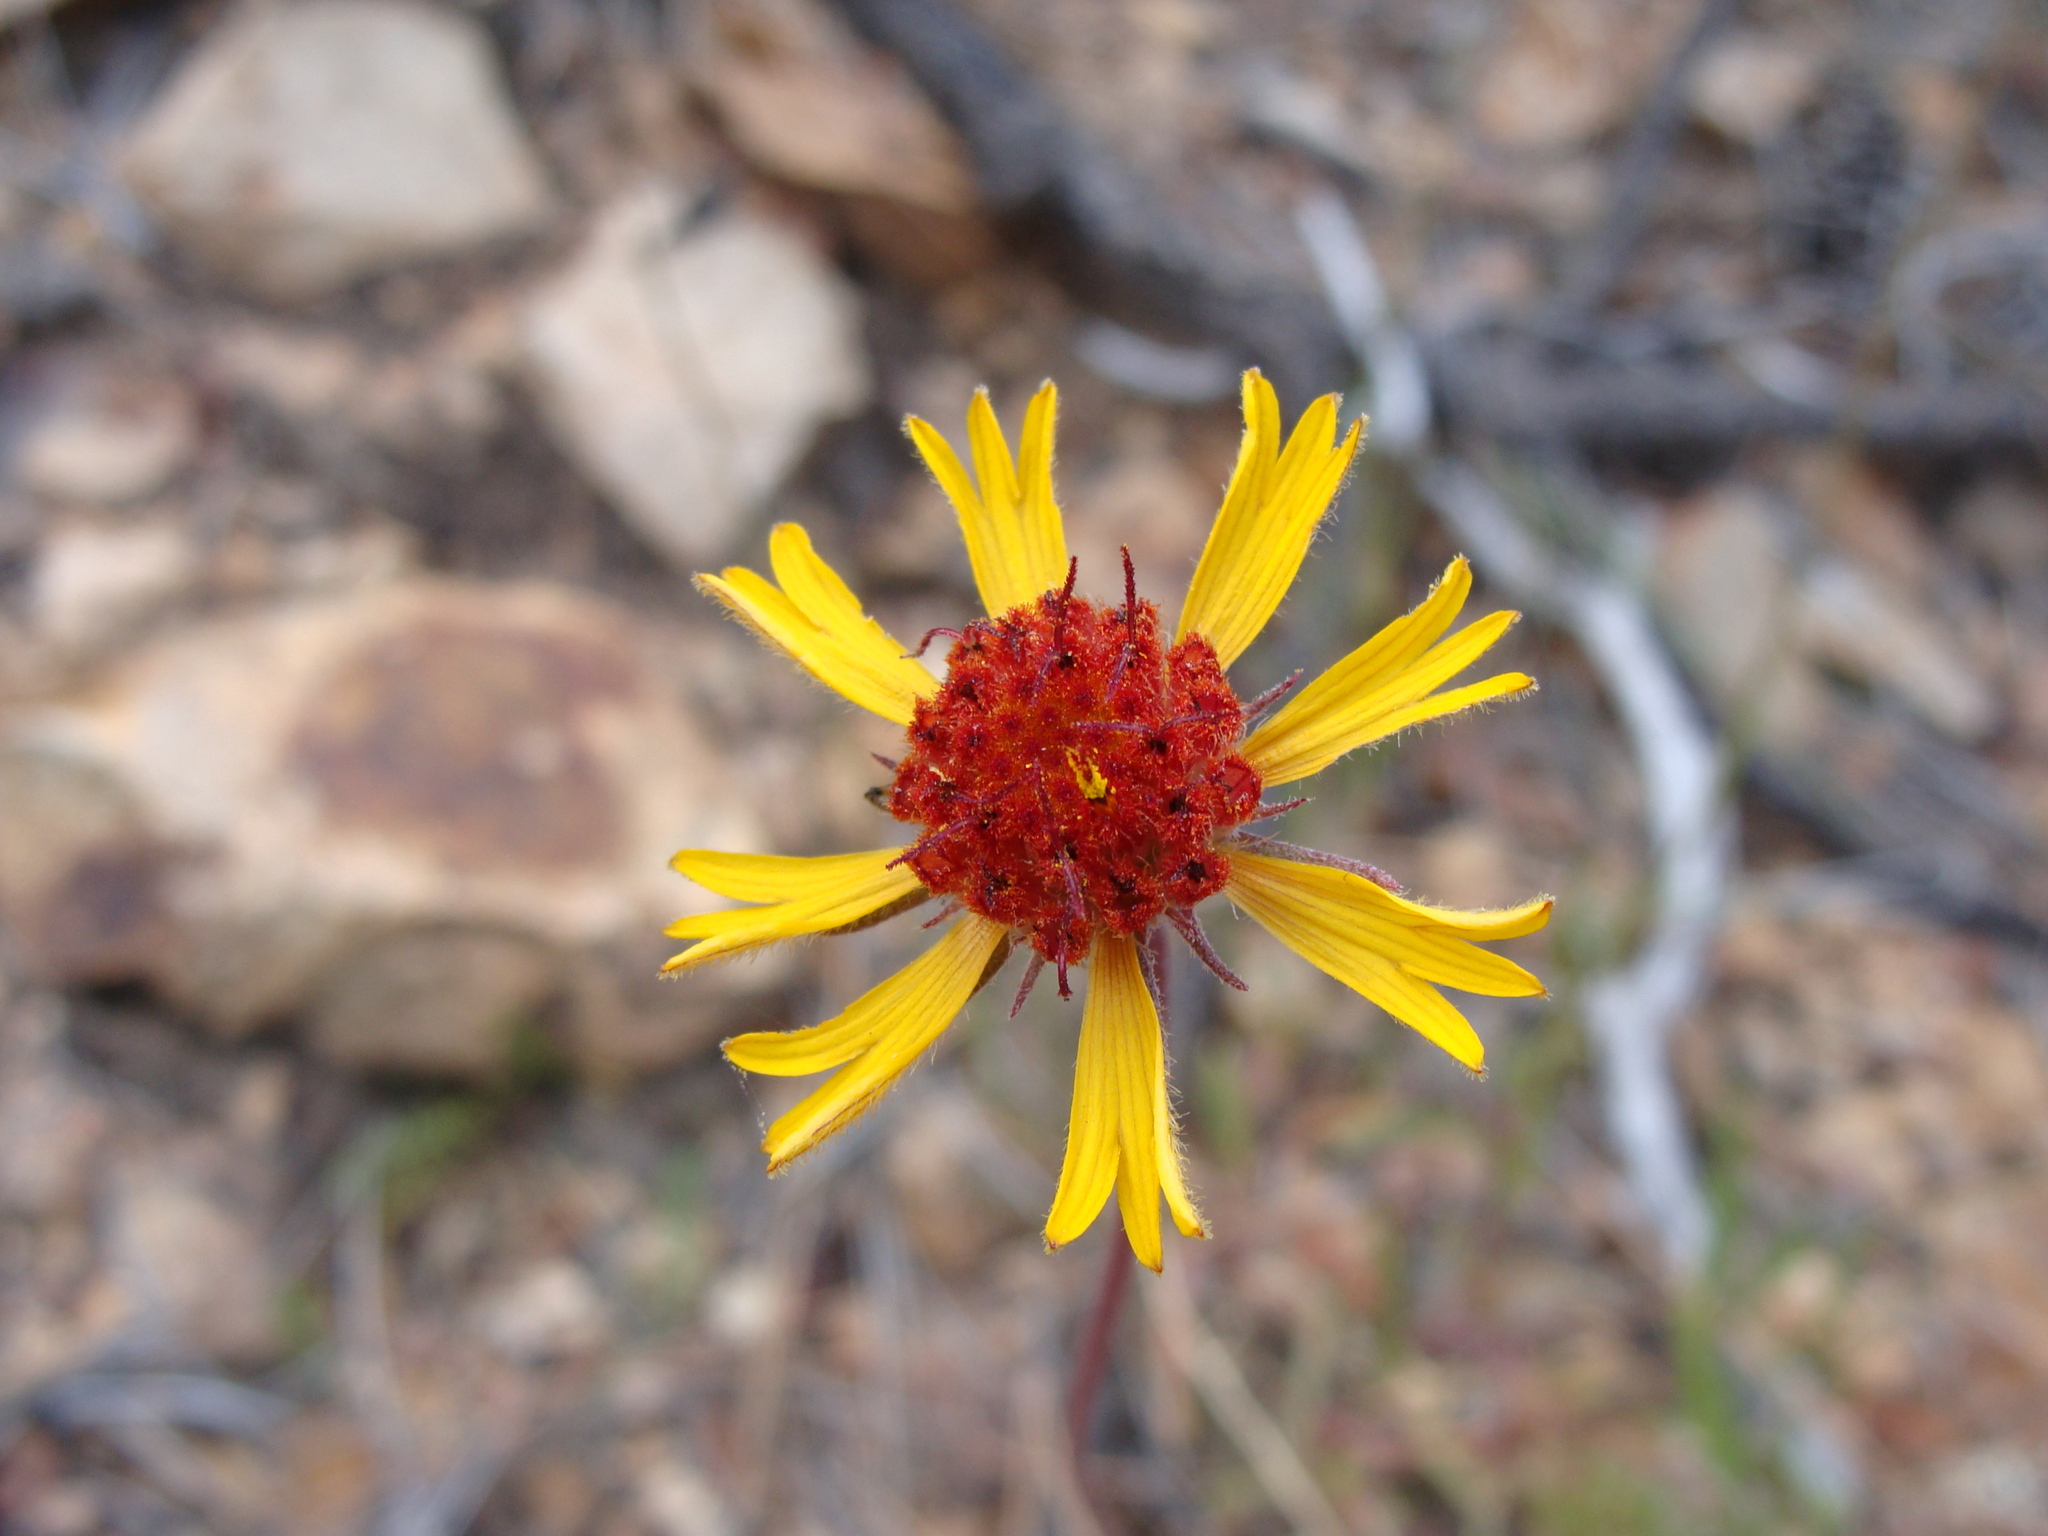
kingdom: Plantae
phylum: Tracheophyta
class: Magnoliopsida
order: Asterales
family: Asteraceae
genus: Gaillardia
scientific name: Gaillardia pinnatifida
